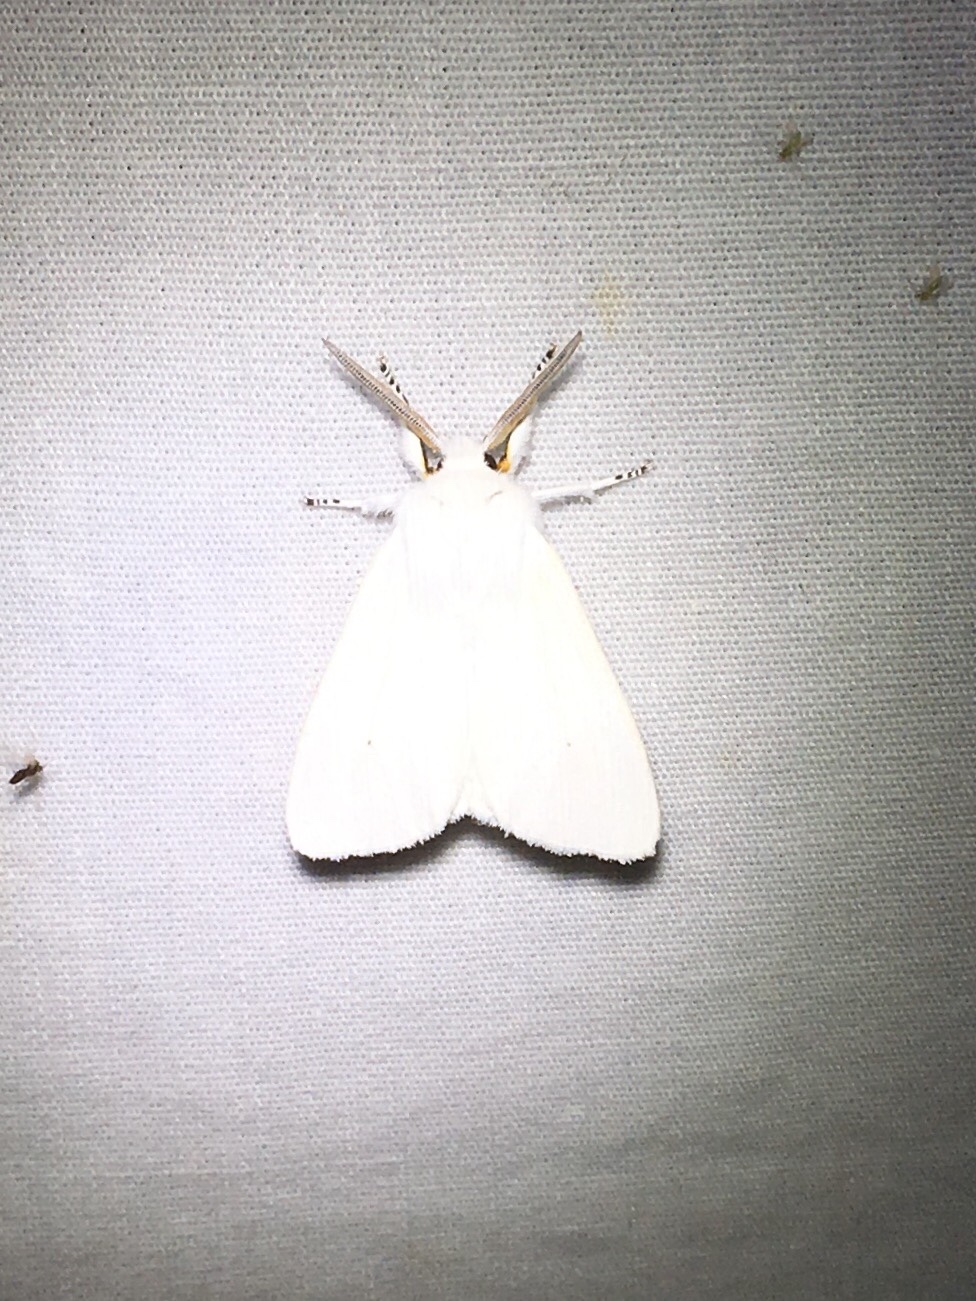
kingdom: Animalia
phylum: Arthropoda
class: Insecta
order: Lepidoptera
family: Erebidae
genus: Spilosoma
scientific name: Spilosoma virginica
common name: Virginia tiger moth
